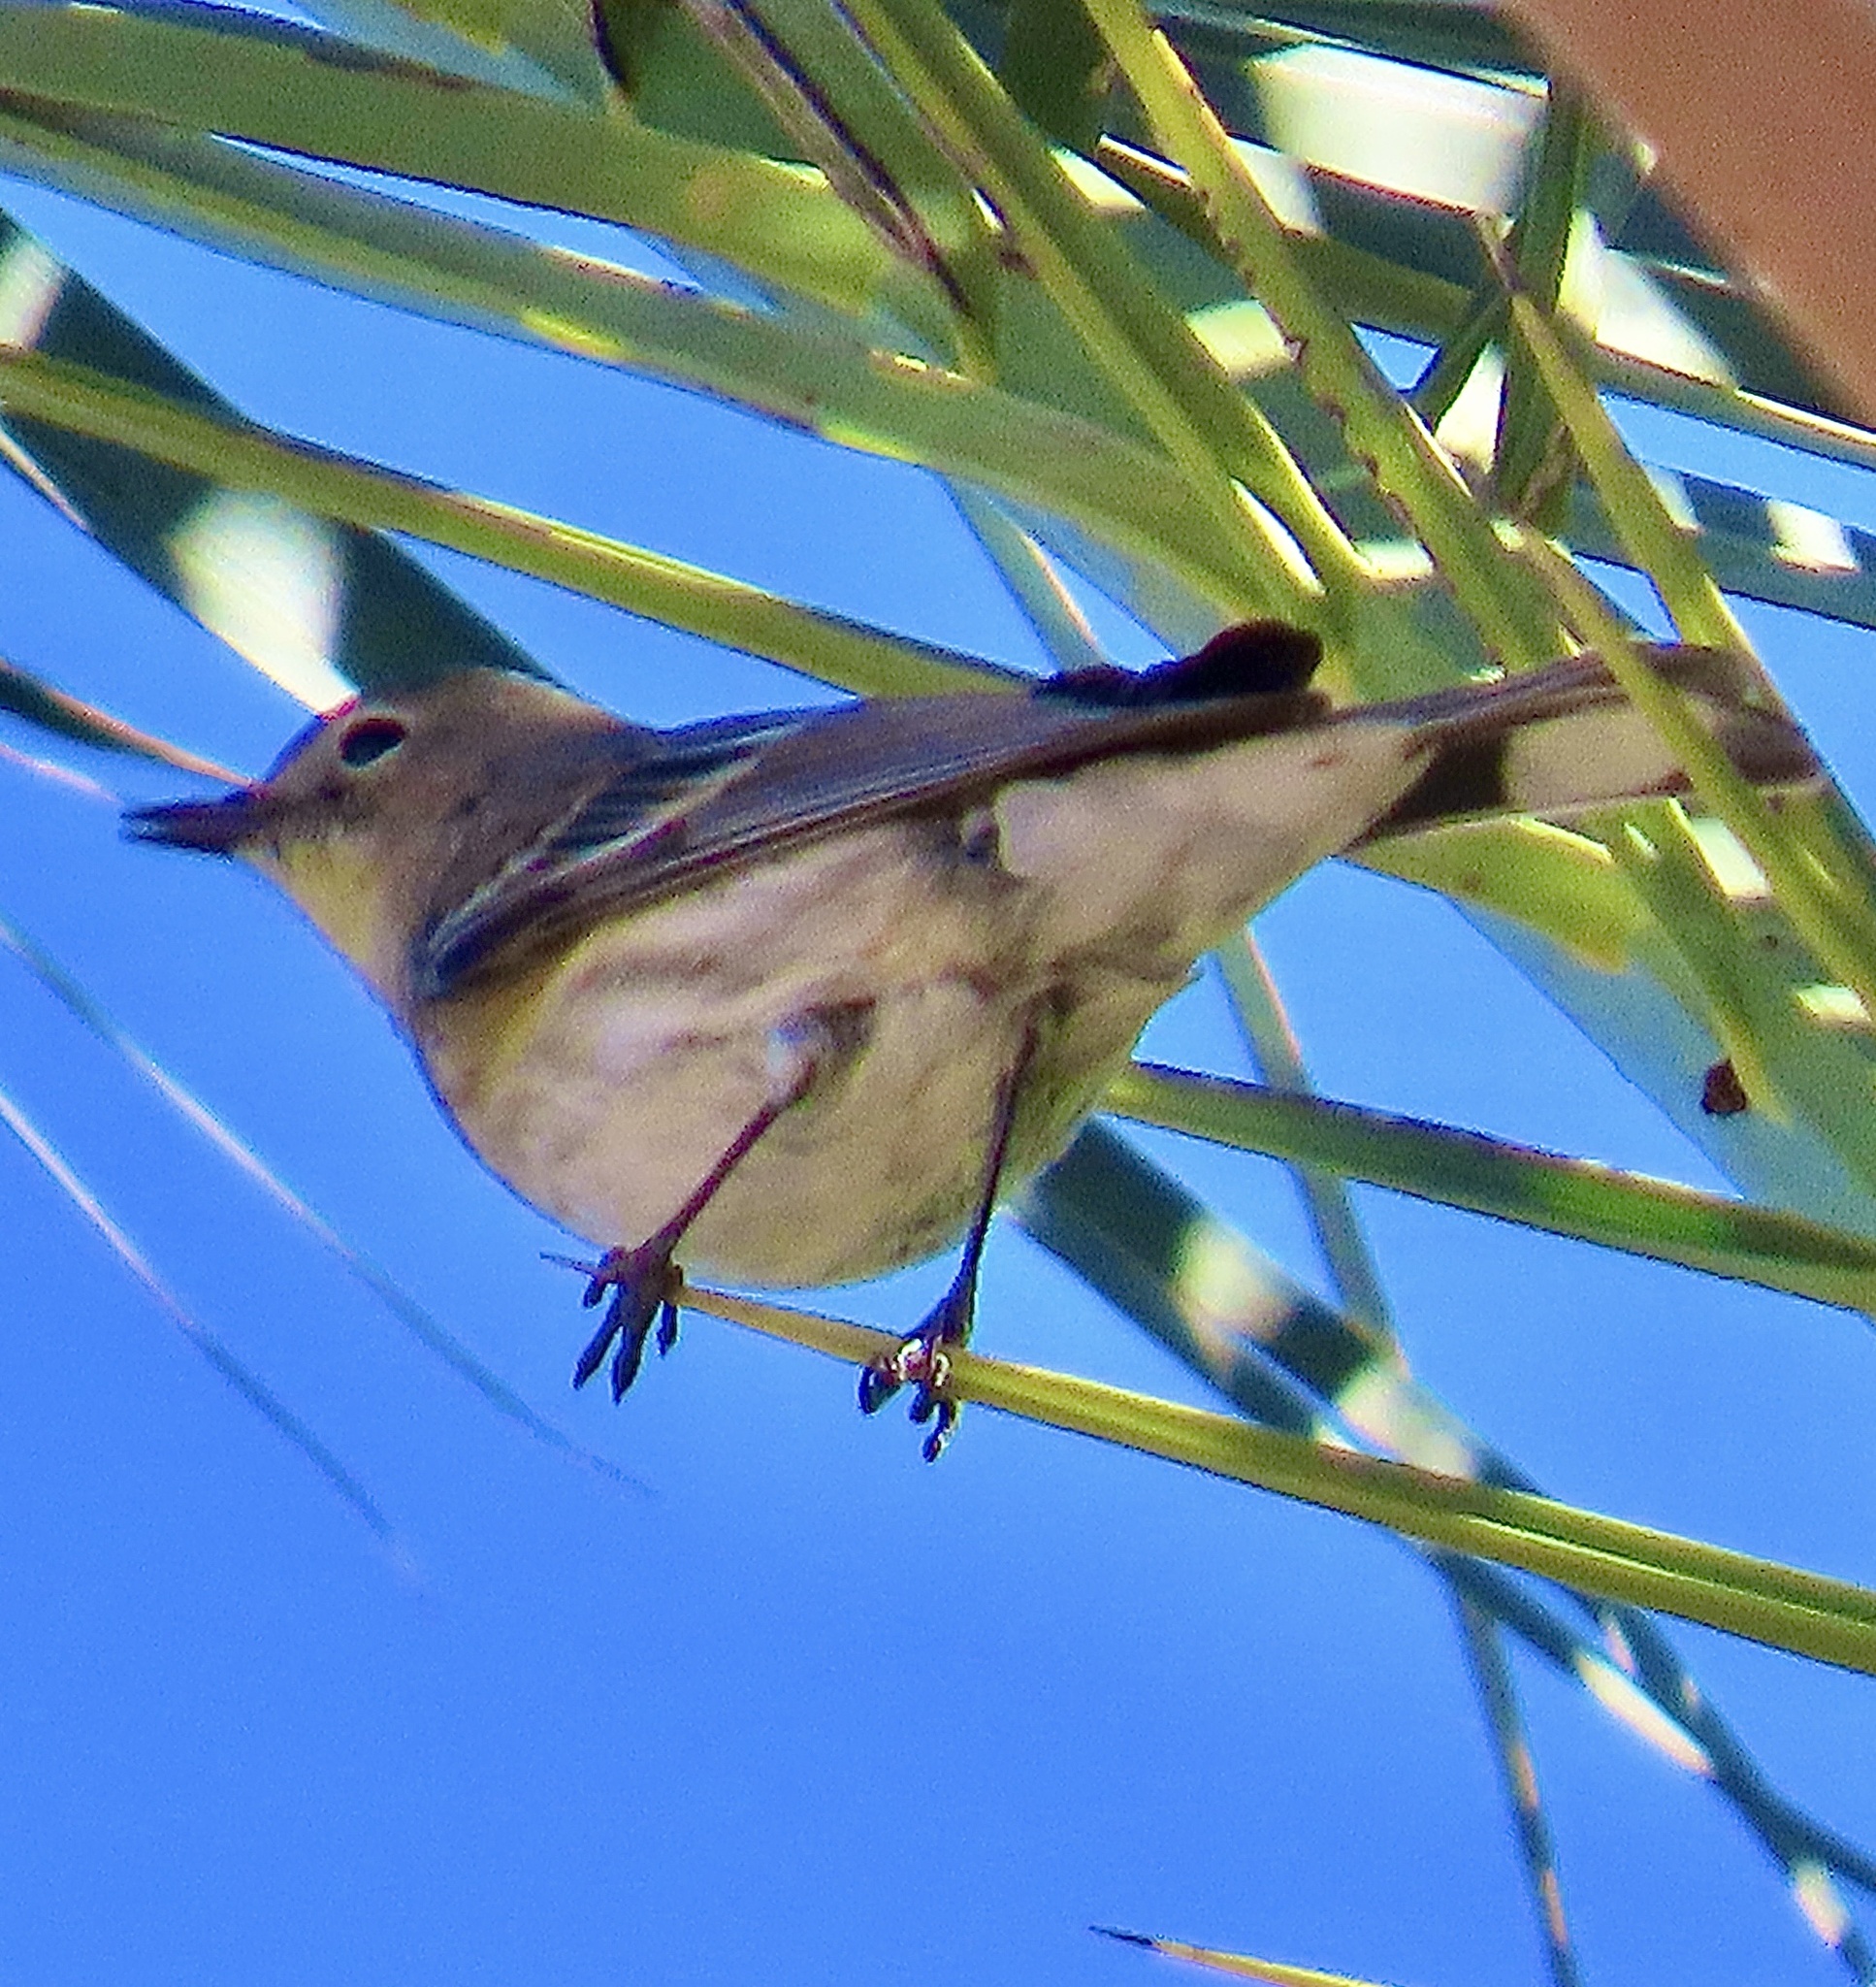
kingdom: Animalia
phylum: Chordata
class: Aves
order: Passeriformes
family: Parulidae
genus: Setophaga
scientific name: Setophaga coronata
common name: Myrtle warbler
